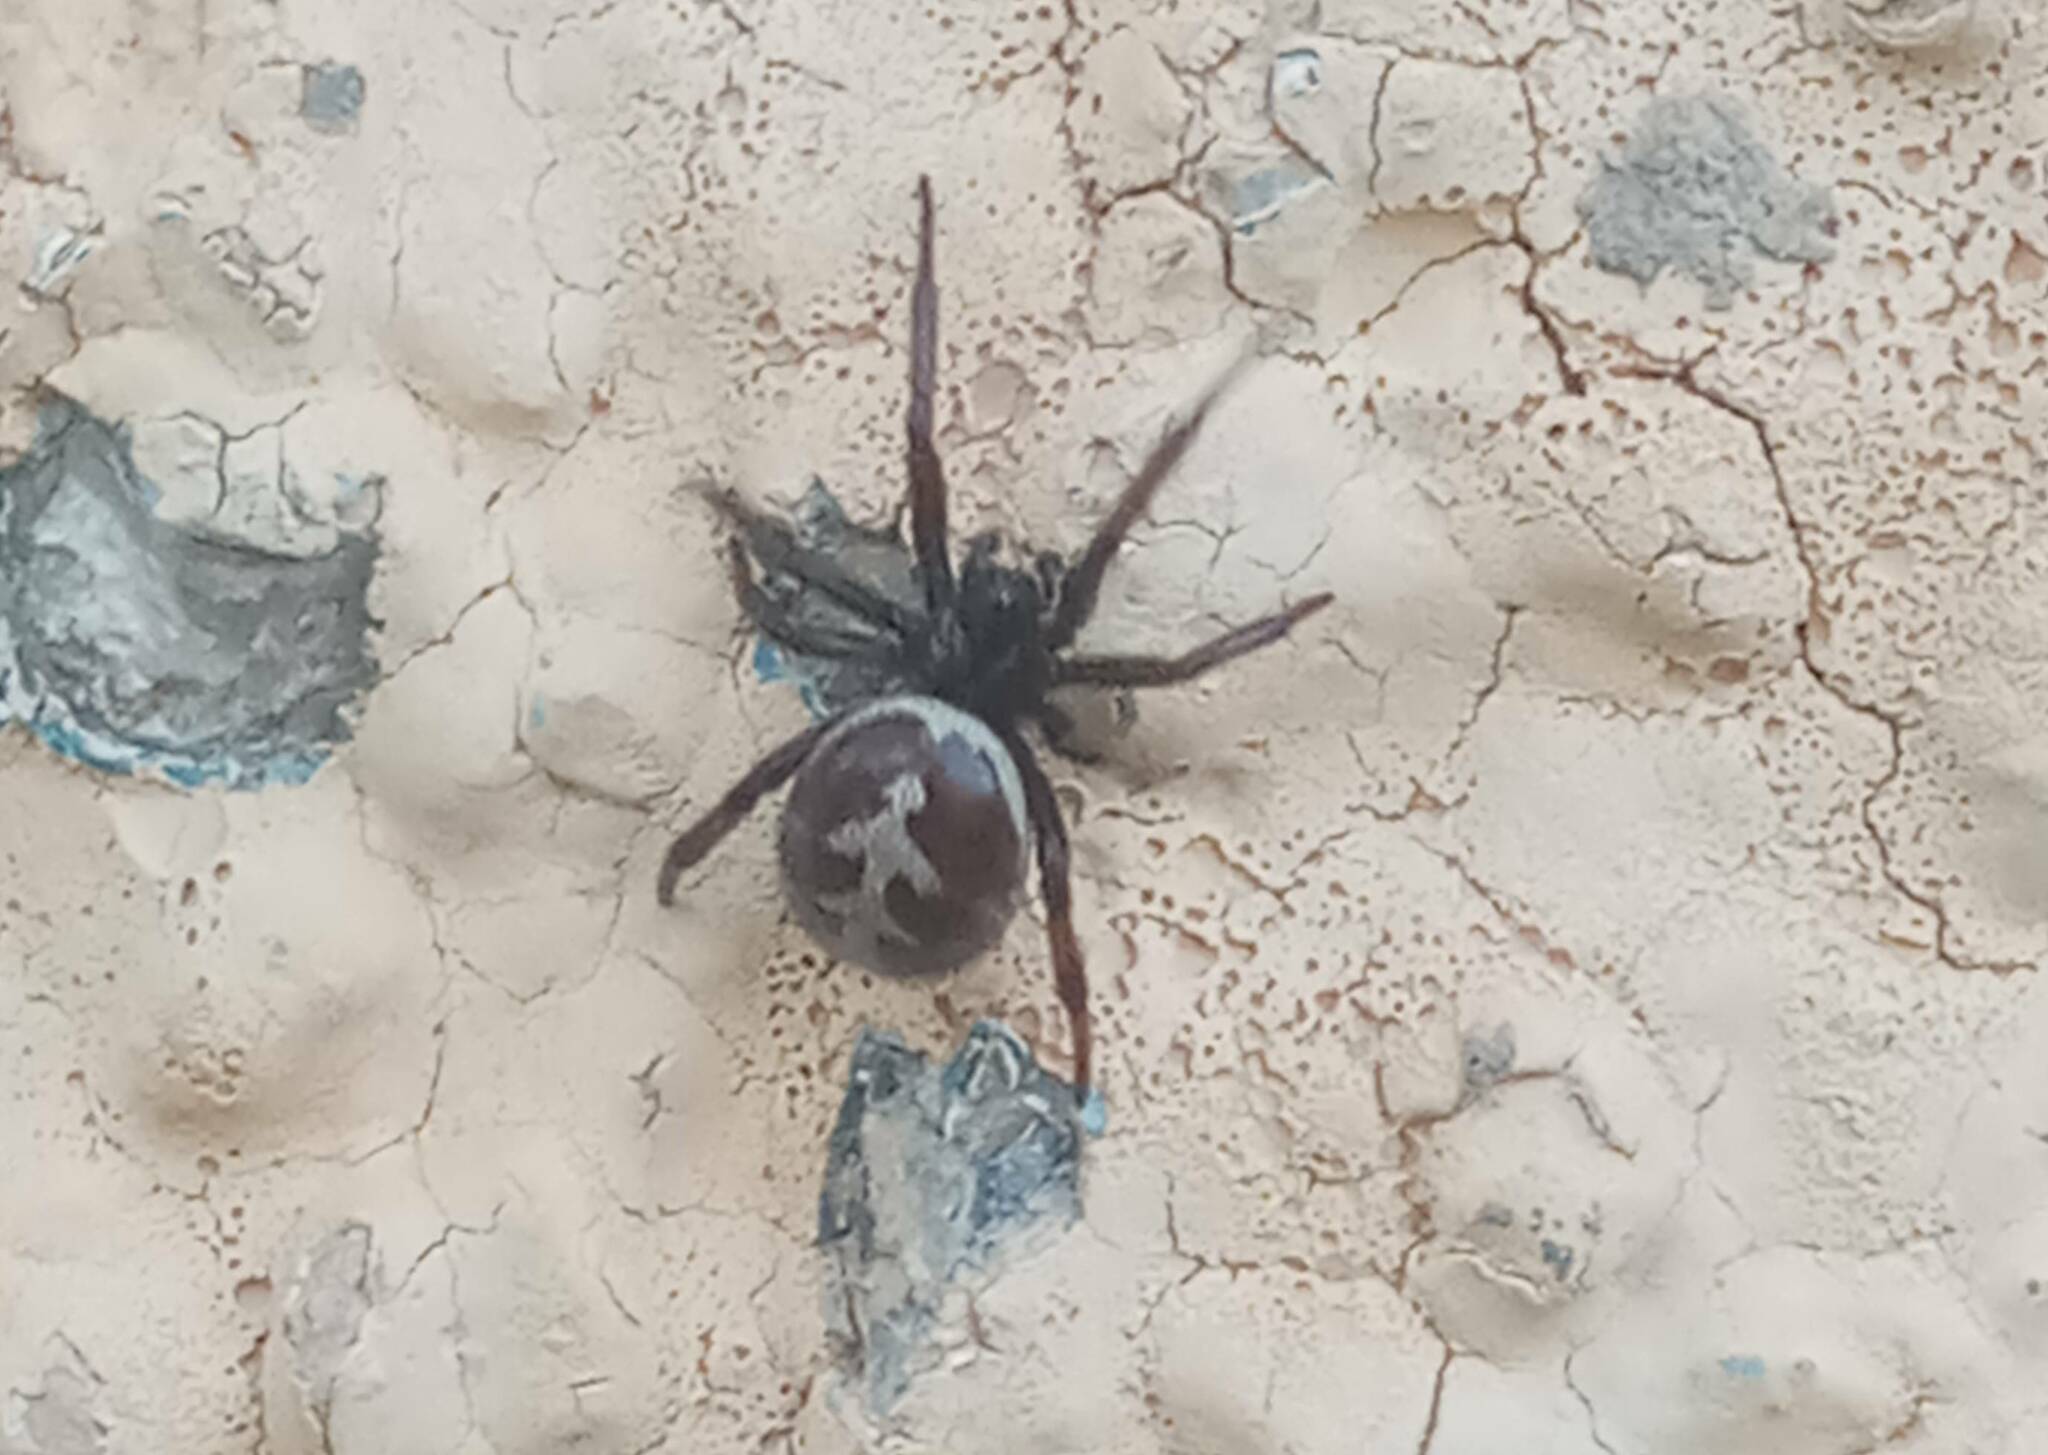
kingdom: Animalia
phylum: Arthropoda
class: Arachnida
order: Araneae
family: Theridiidae
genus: Steatoda
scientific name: Steatoda paykulliana
